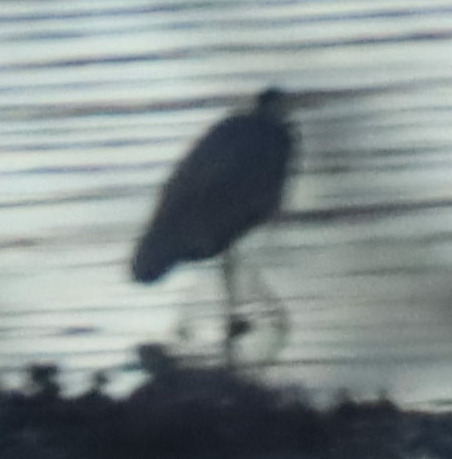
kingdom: Animalia
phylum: Chordata
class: Aves
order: Pelecaniformes
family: Ardeidae
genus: Ardea
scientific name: Ardea herodias
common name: Great blue heron
